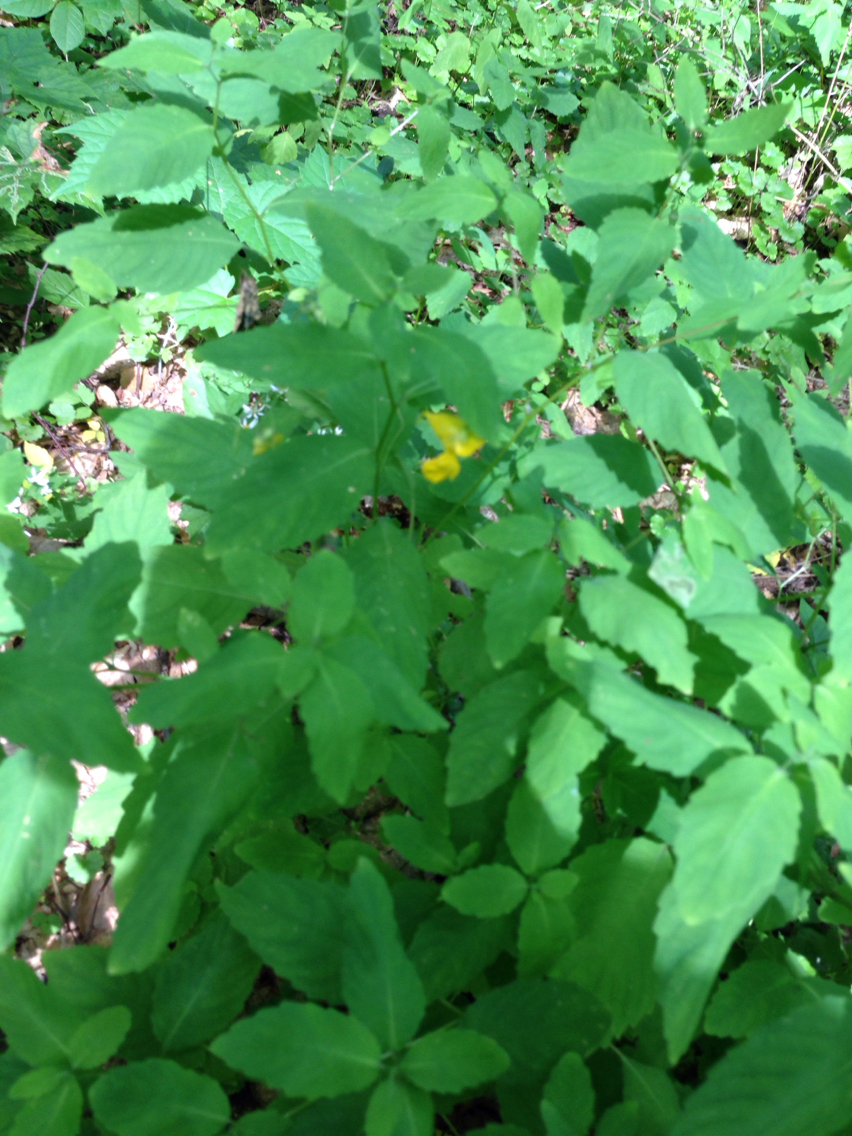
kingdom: Plantae
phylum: Tracheophyta
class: Magnoliopsida
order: Ericales
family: Balsaminaceae
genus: Impatiens
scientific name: Impatiens pallida
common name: Pale snapweed
